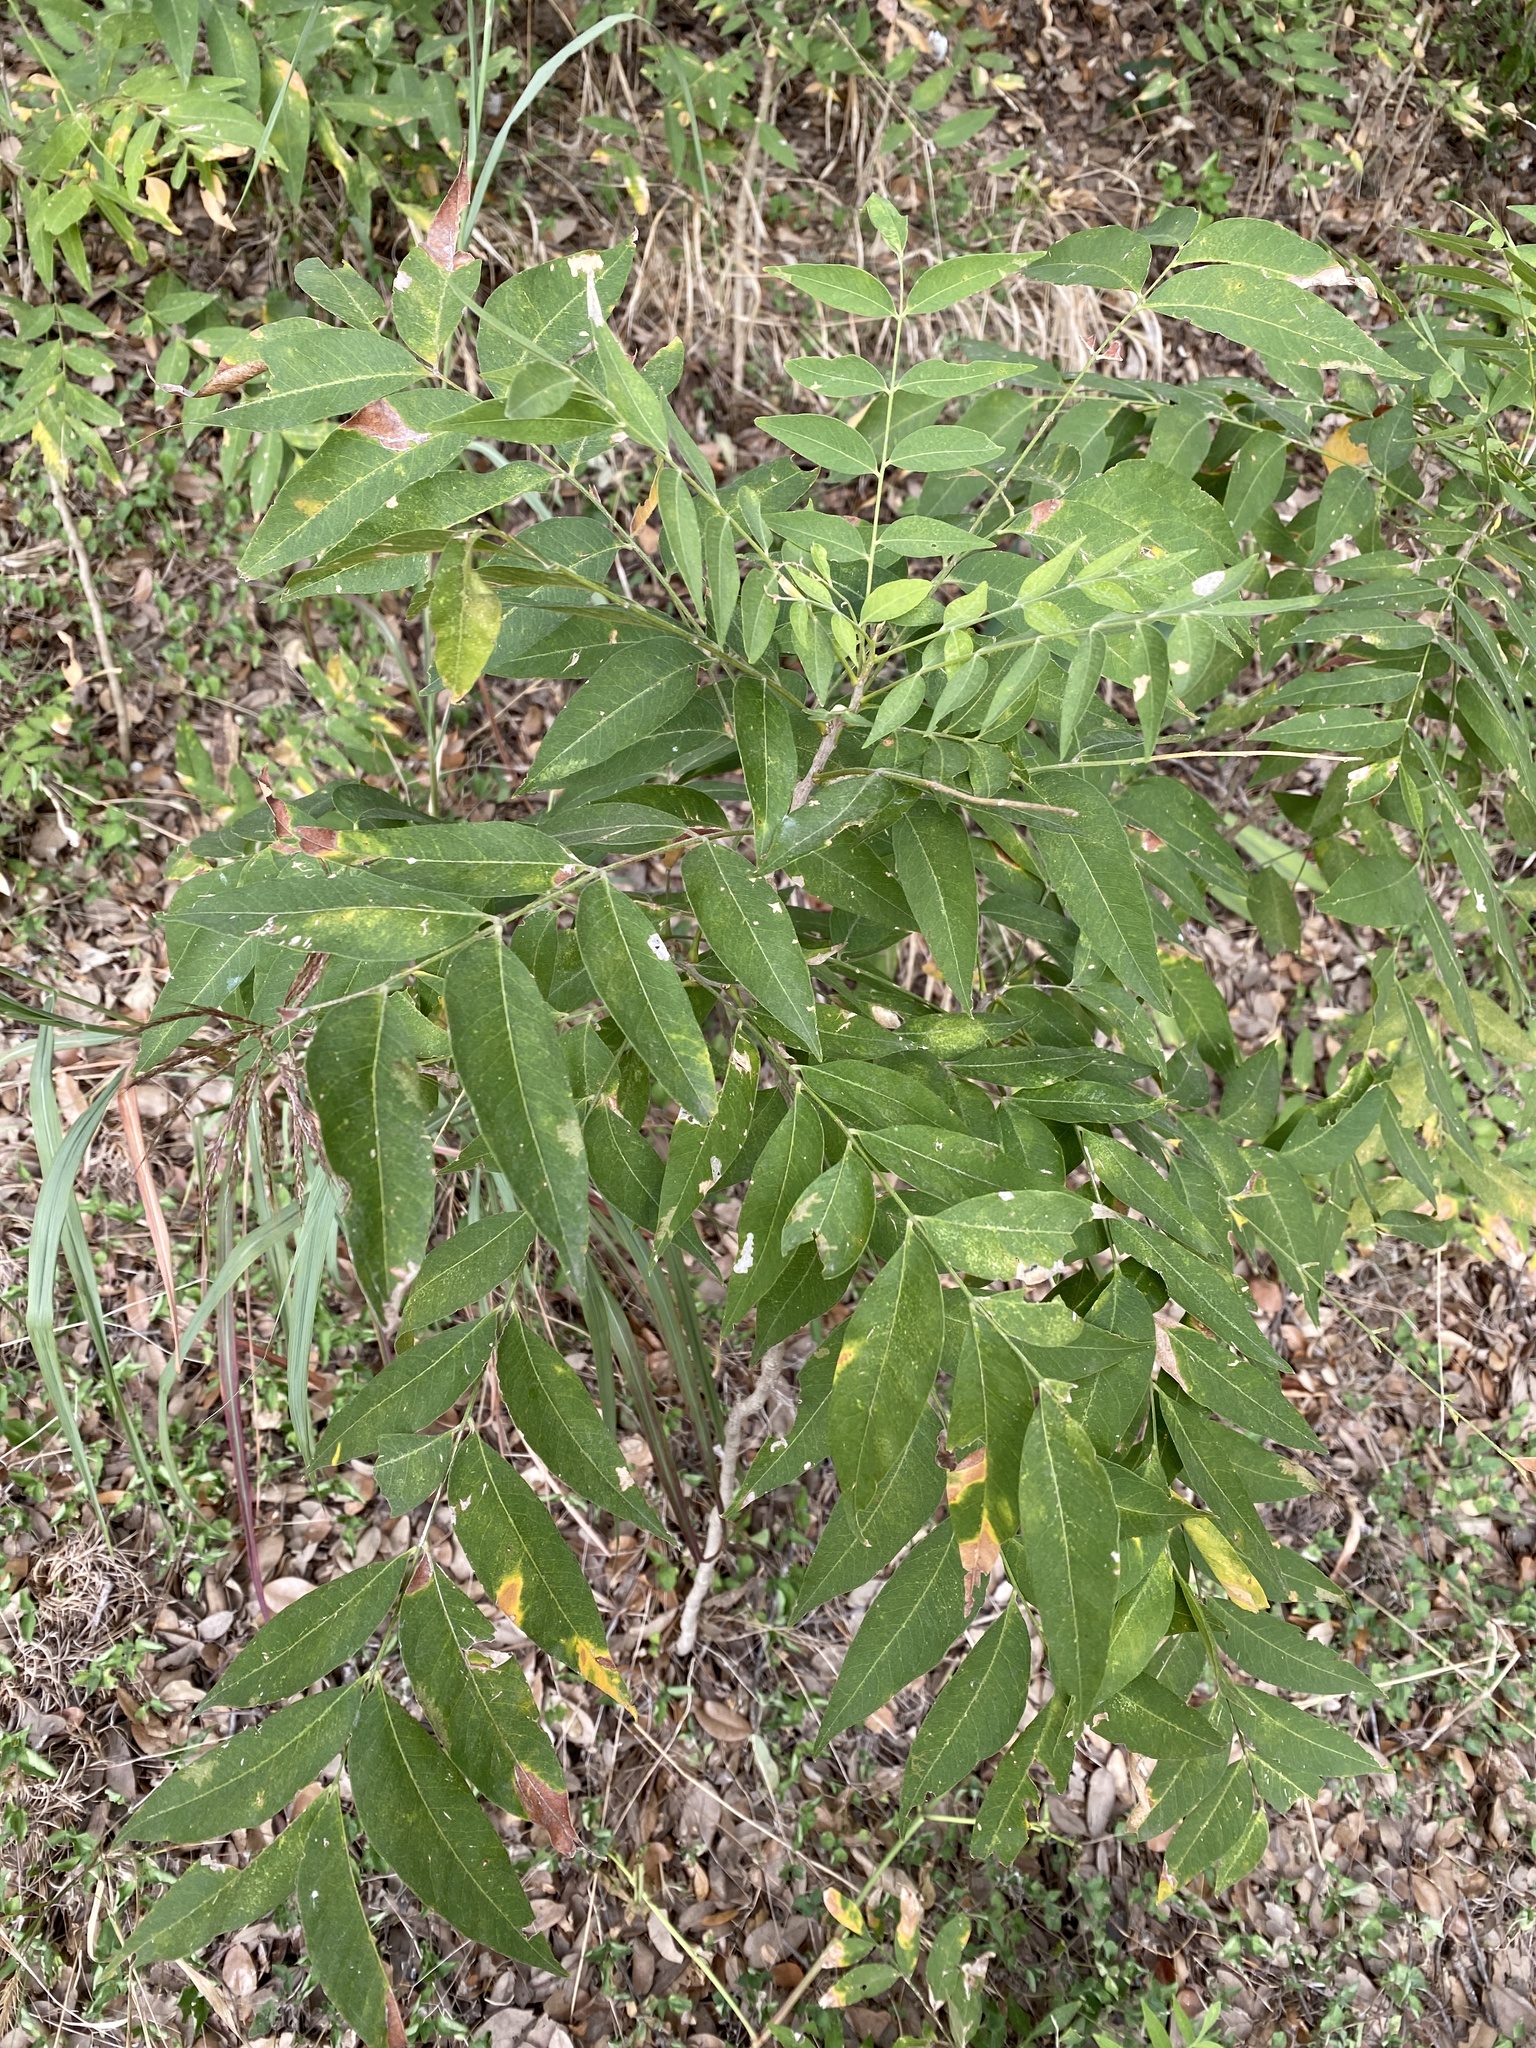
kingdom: Plantae
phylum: Tracheophyta
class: Magnoliopsida
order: Sapindales
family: Sapindaceae
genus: Sapindus
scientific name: Sapindus drummondii
